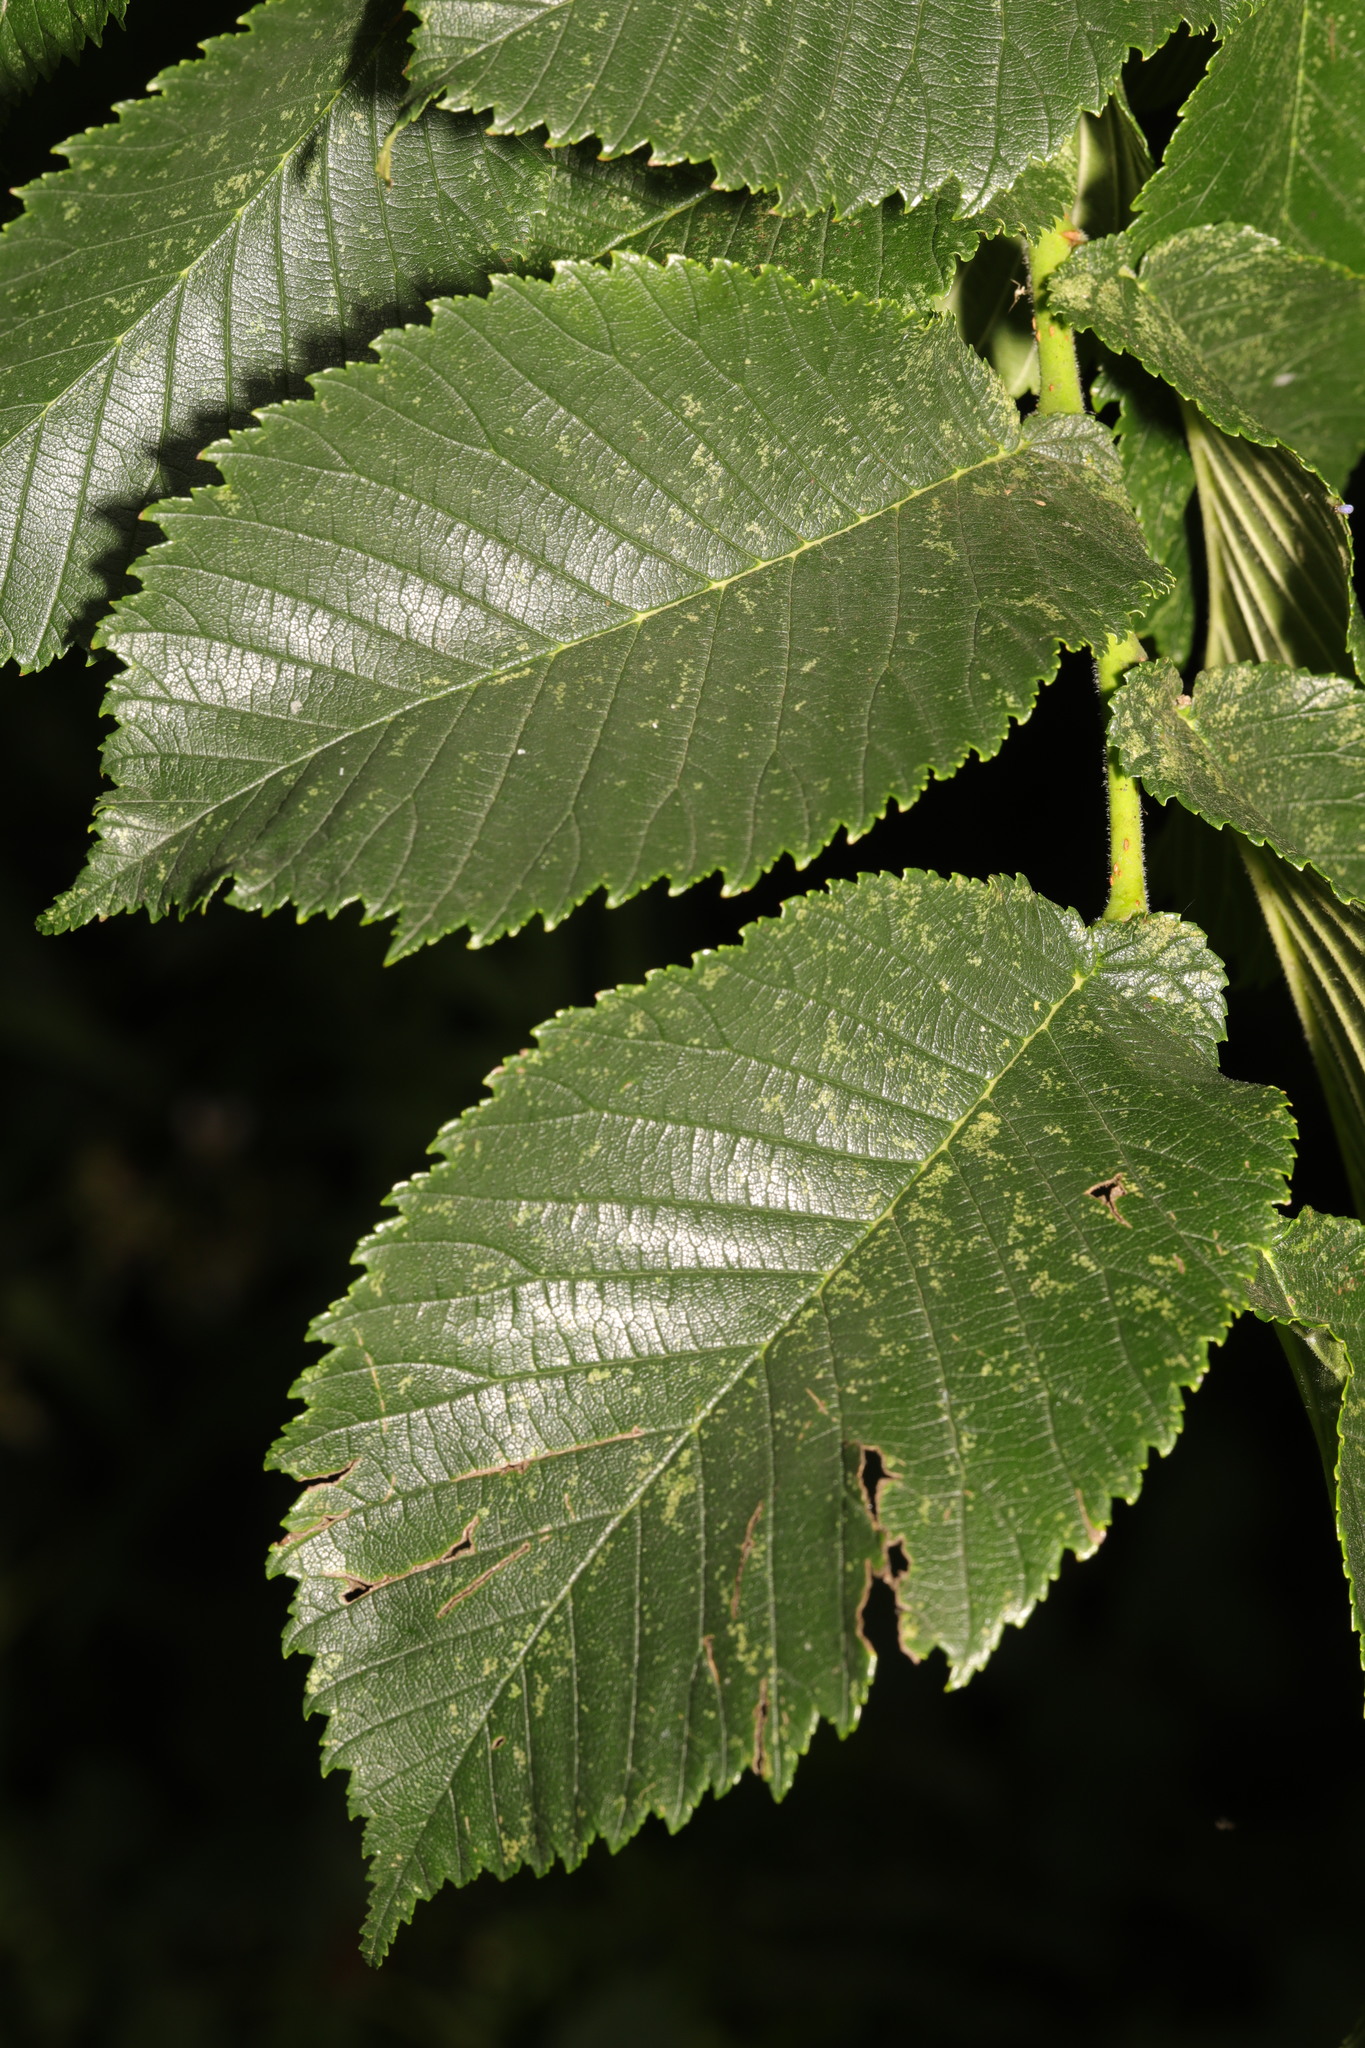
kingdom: Plantae
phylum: Tracheophyta
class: Magnoliopsida
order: Rosales
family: Ulmaceae
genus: Ulmus
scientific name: Ulmus glabra
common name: Wych elm
